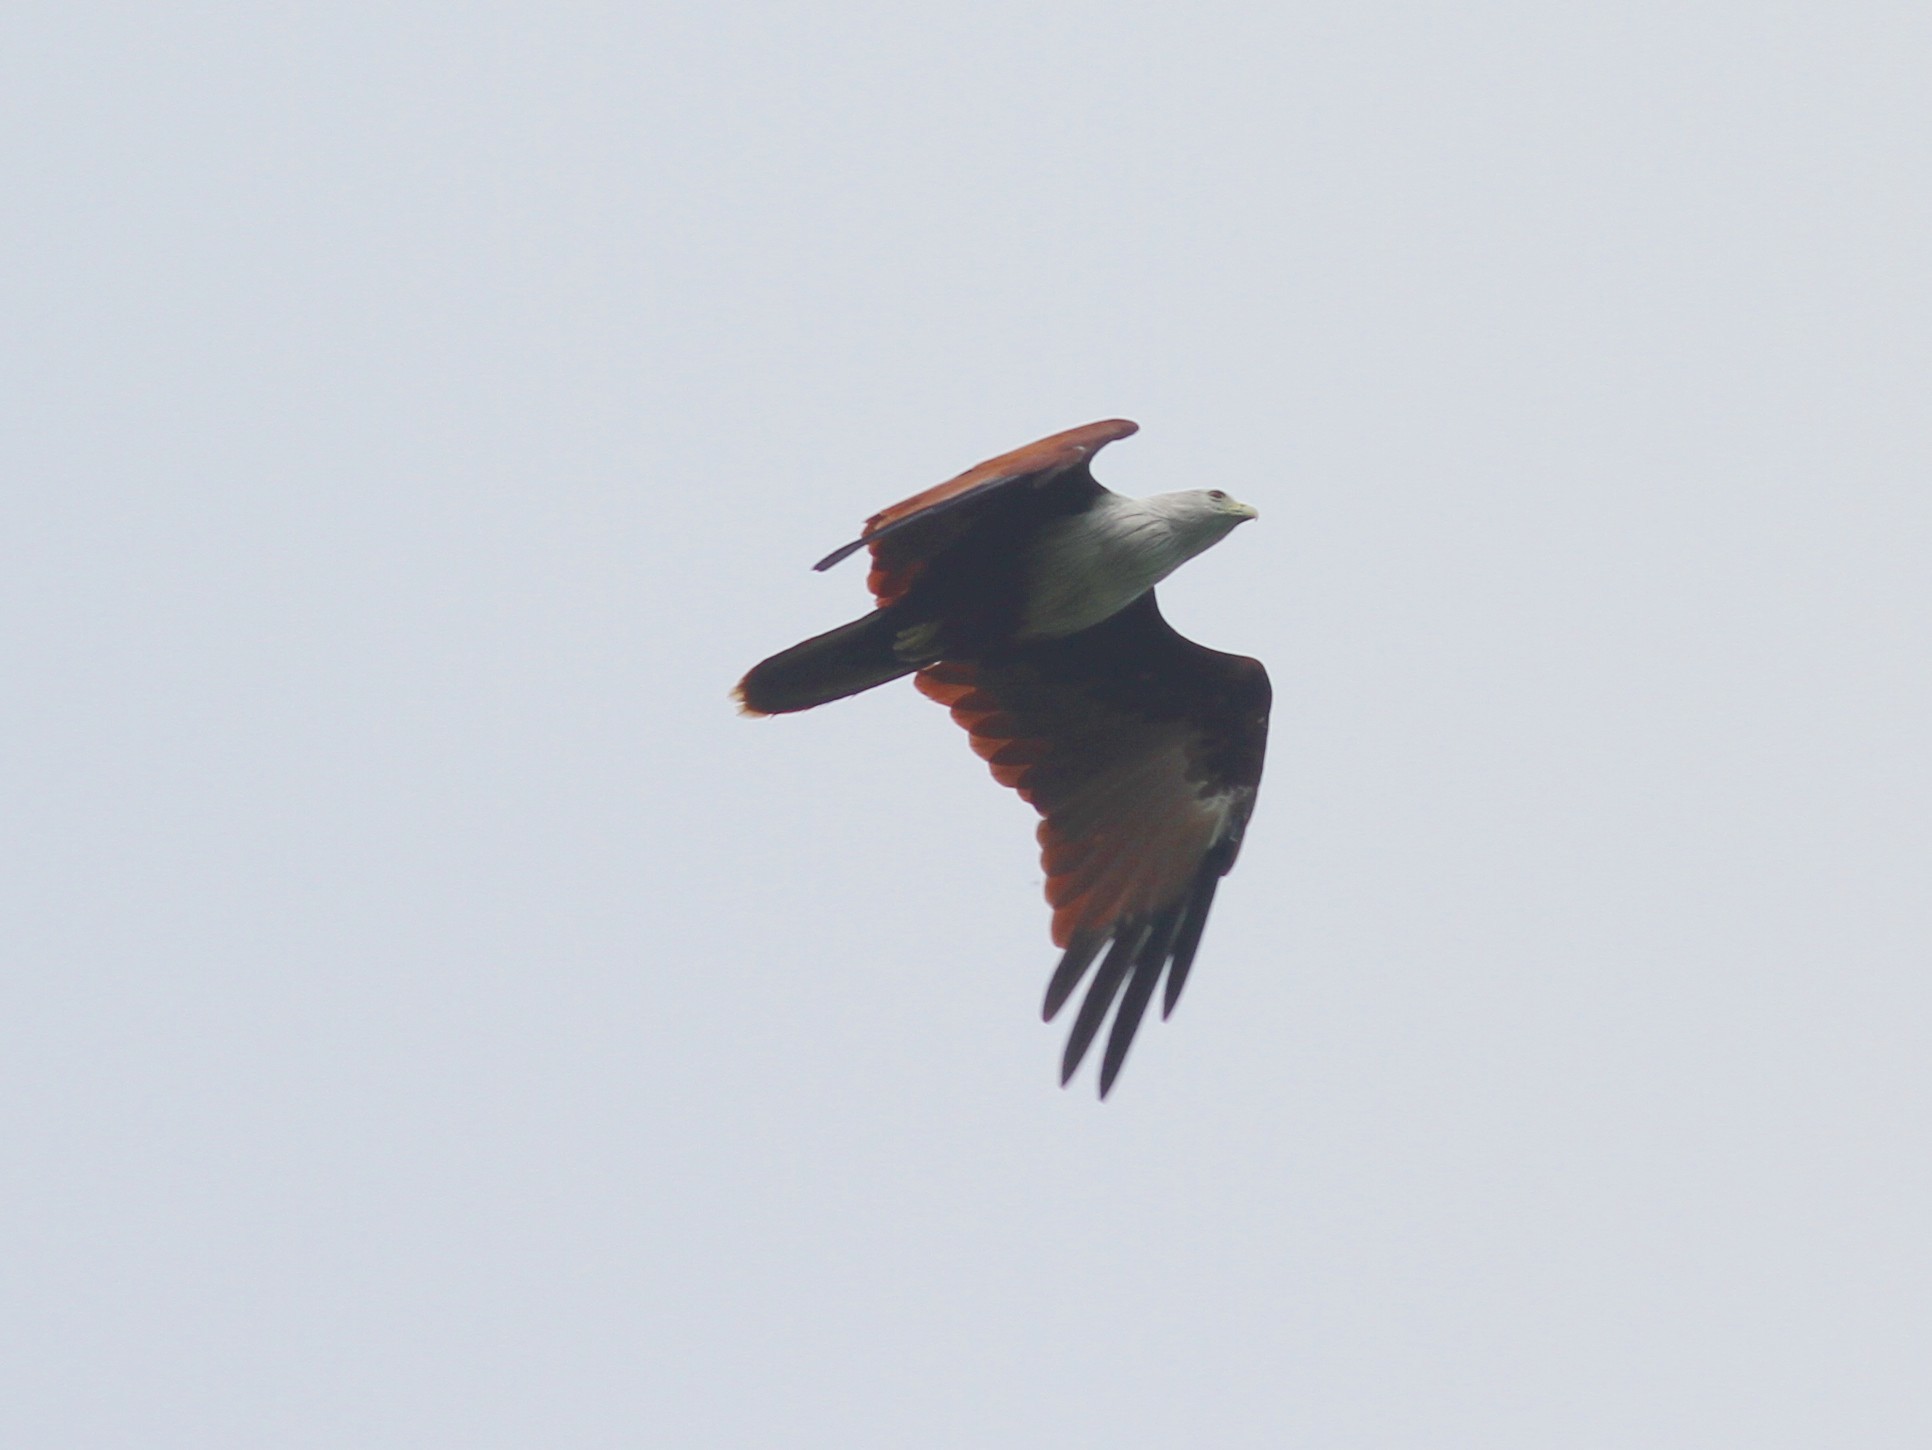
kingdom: Animalia
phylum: Chordata
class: Aves
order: Accipitriformes
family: Accipitridae
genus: Haliastur
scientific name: Haliastur indus
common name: Brahminy kite
